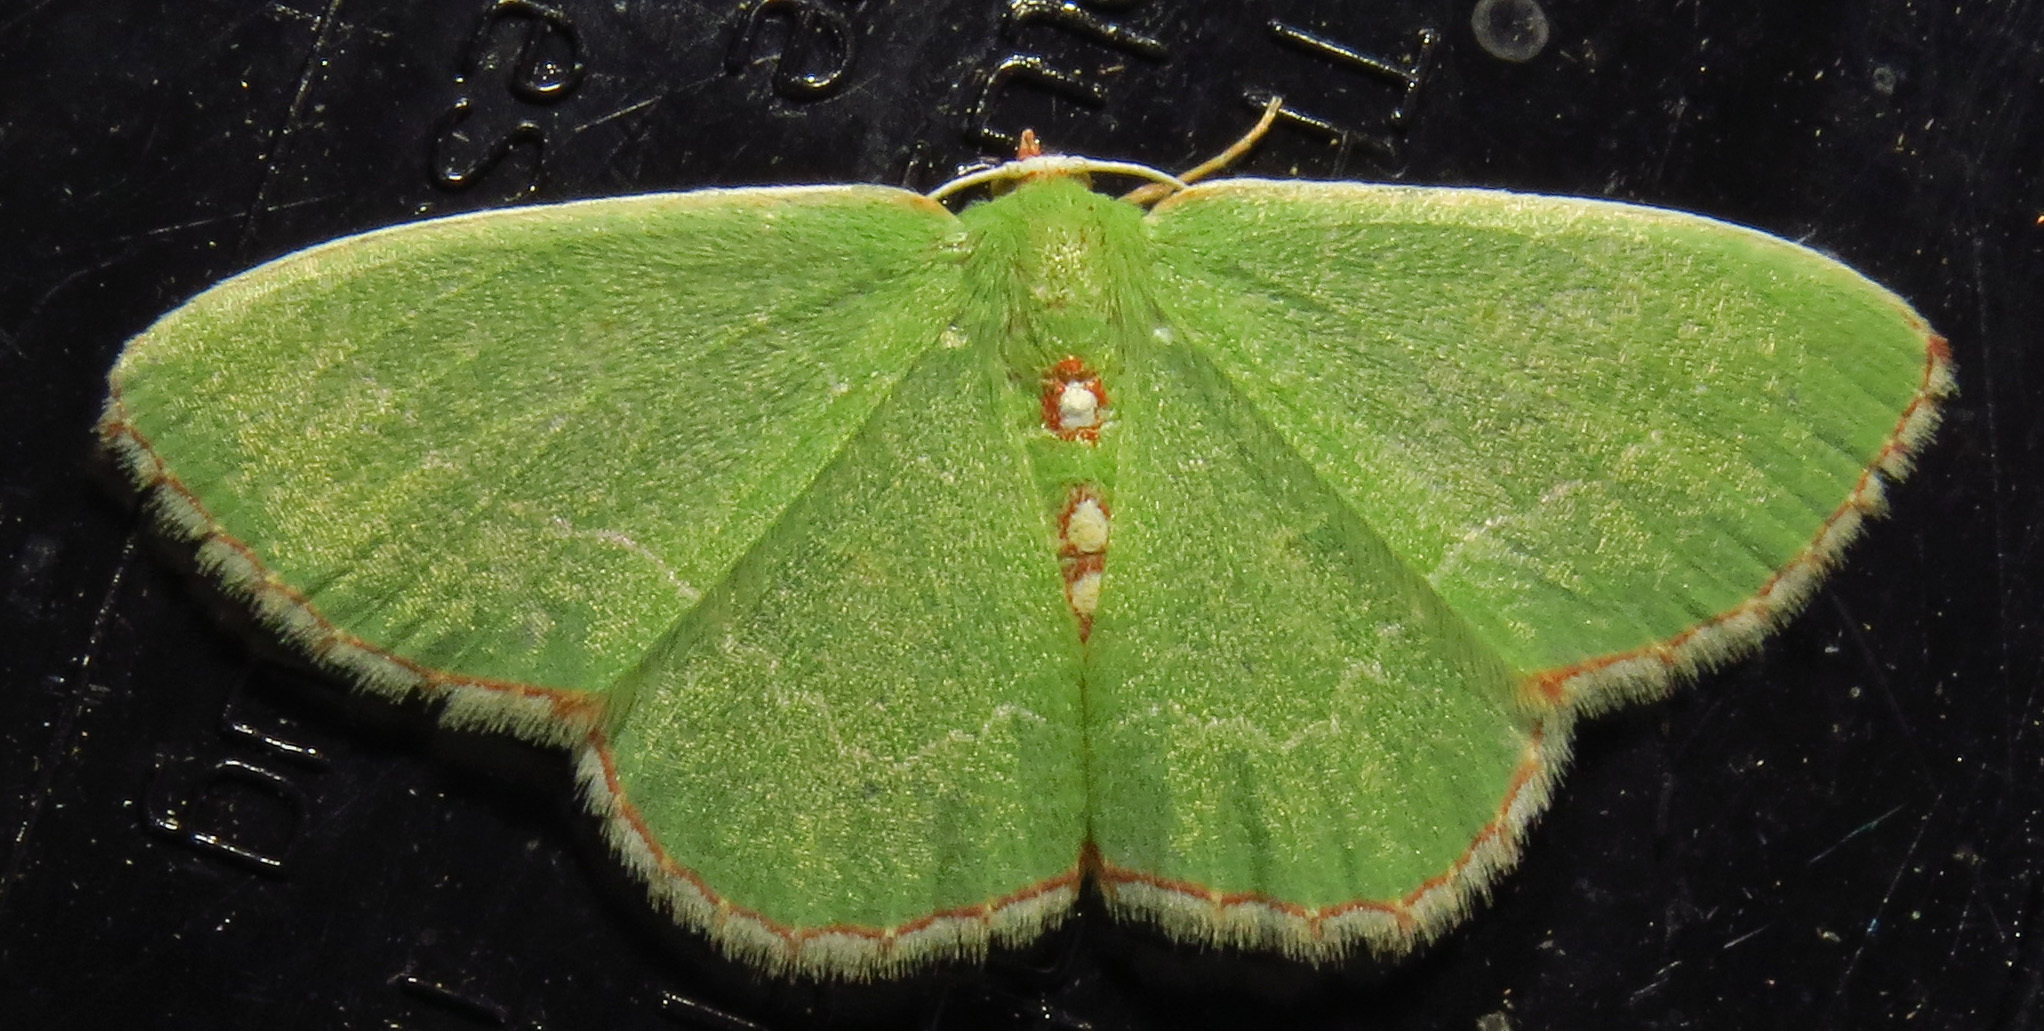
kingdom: Animalia
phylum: Arthropoda
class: Insecta
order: Lepidoptera
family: Geometridae
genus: Nemoria
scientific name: Nemoria lixaria
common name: Red-bordered emerald
